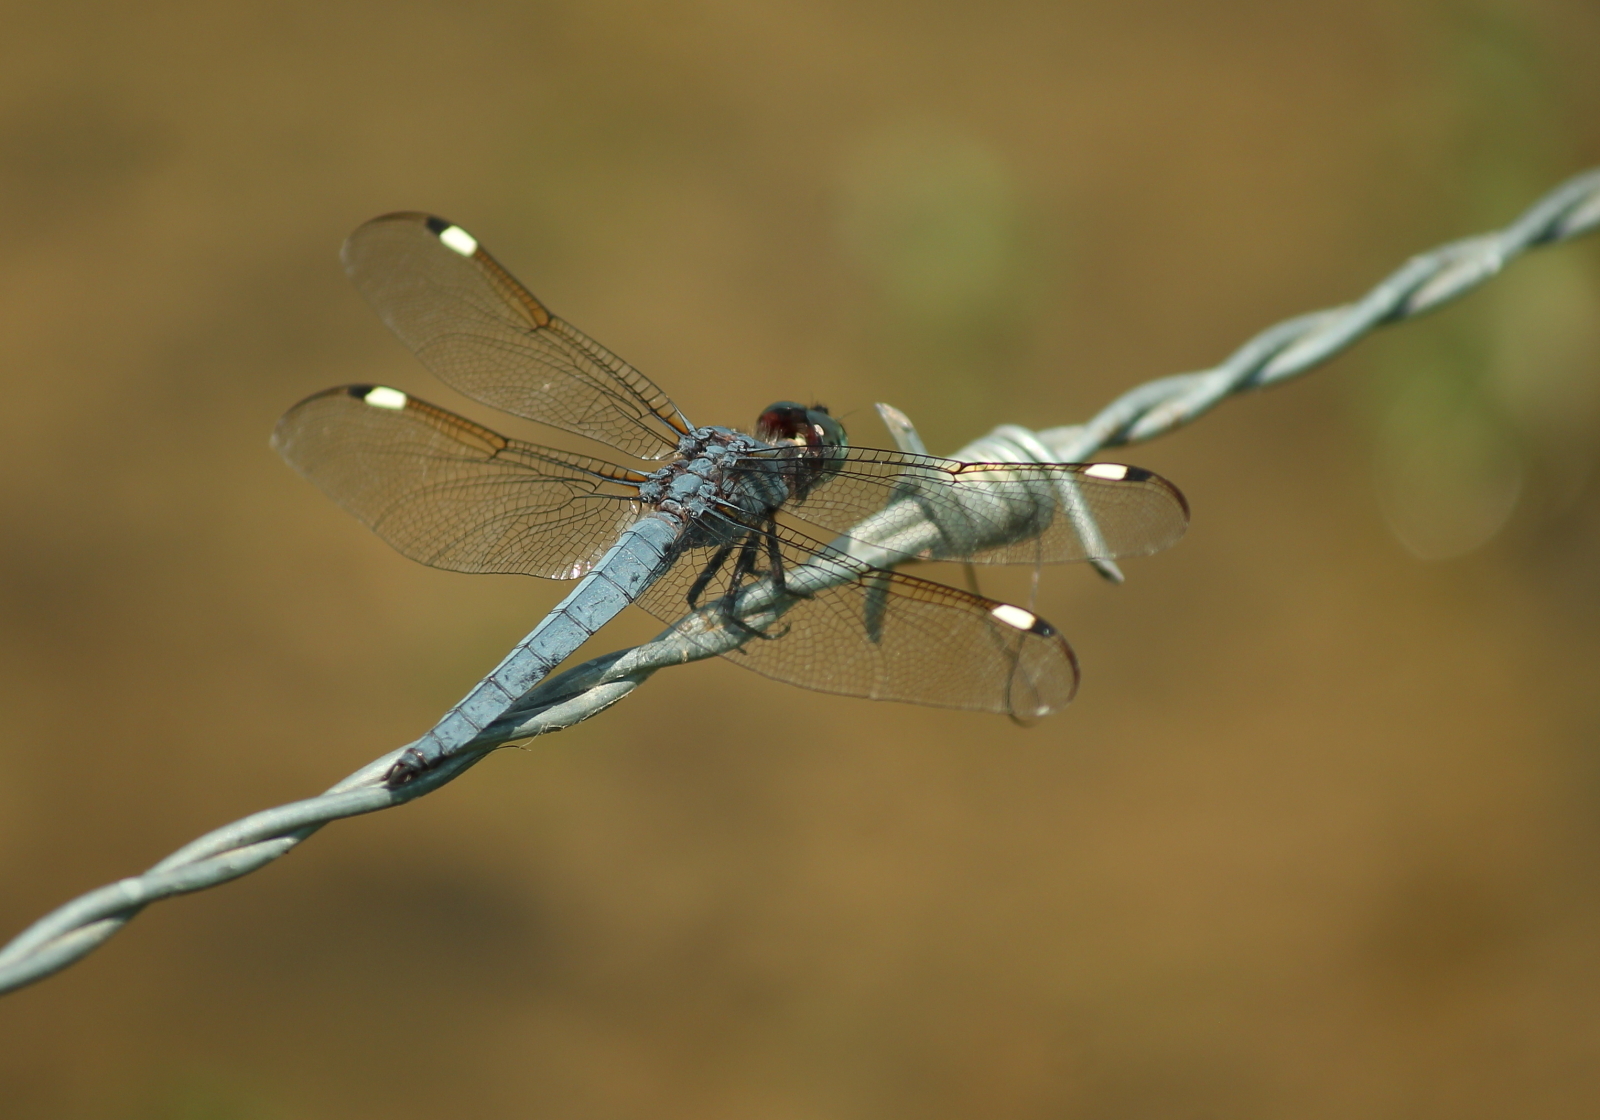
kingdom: Animalia
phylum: Arthropoda
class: Insecta
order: Odonata
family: Libellulidae
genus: Libellula
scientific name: Libellula cyanea
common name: Spangled skimmer
